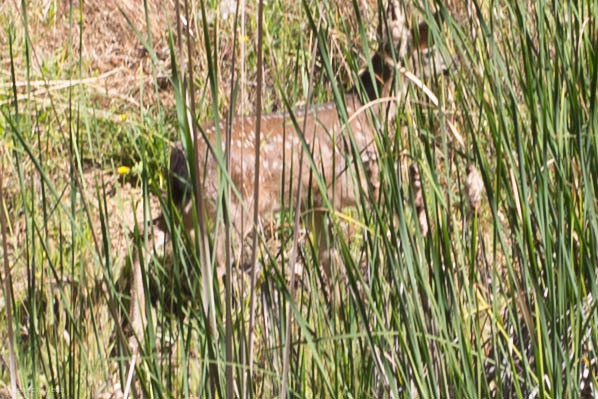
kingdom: Animalia
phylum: Chordata
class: Mammalia
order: Artiodactyla
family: Cervidae
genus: Odocoileus
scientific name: Odocoileus hemionus
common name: Mule deer
